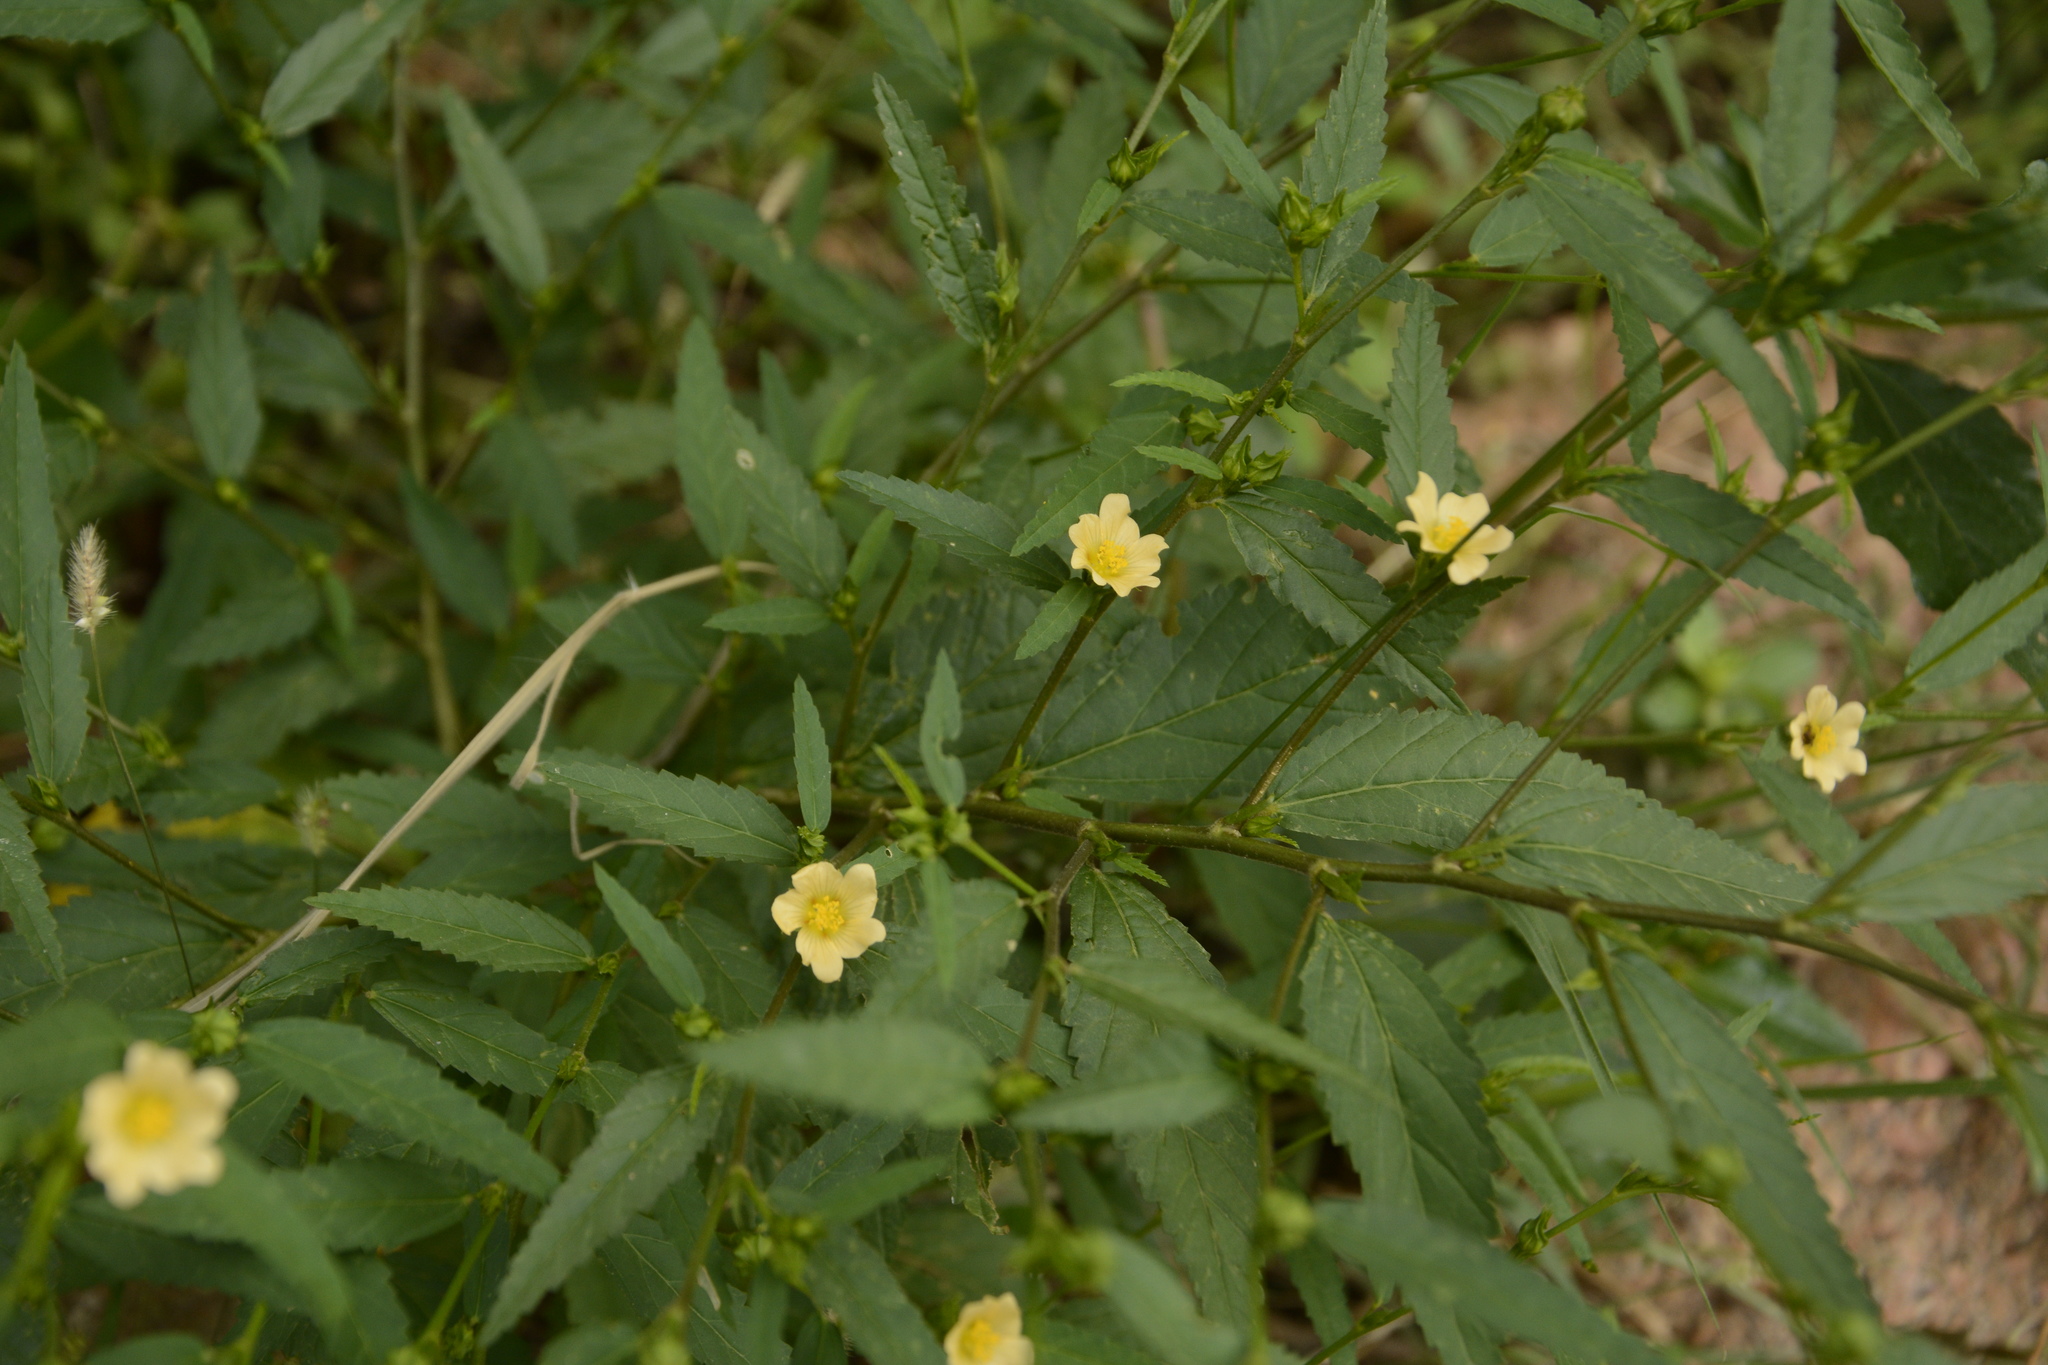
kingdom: Plantae
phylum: Tracheophyta
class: Magnoliopsida
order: Malvales
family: Malvaceae
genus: Sida
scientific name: Sida acuta
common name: Common wireweed
